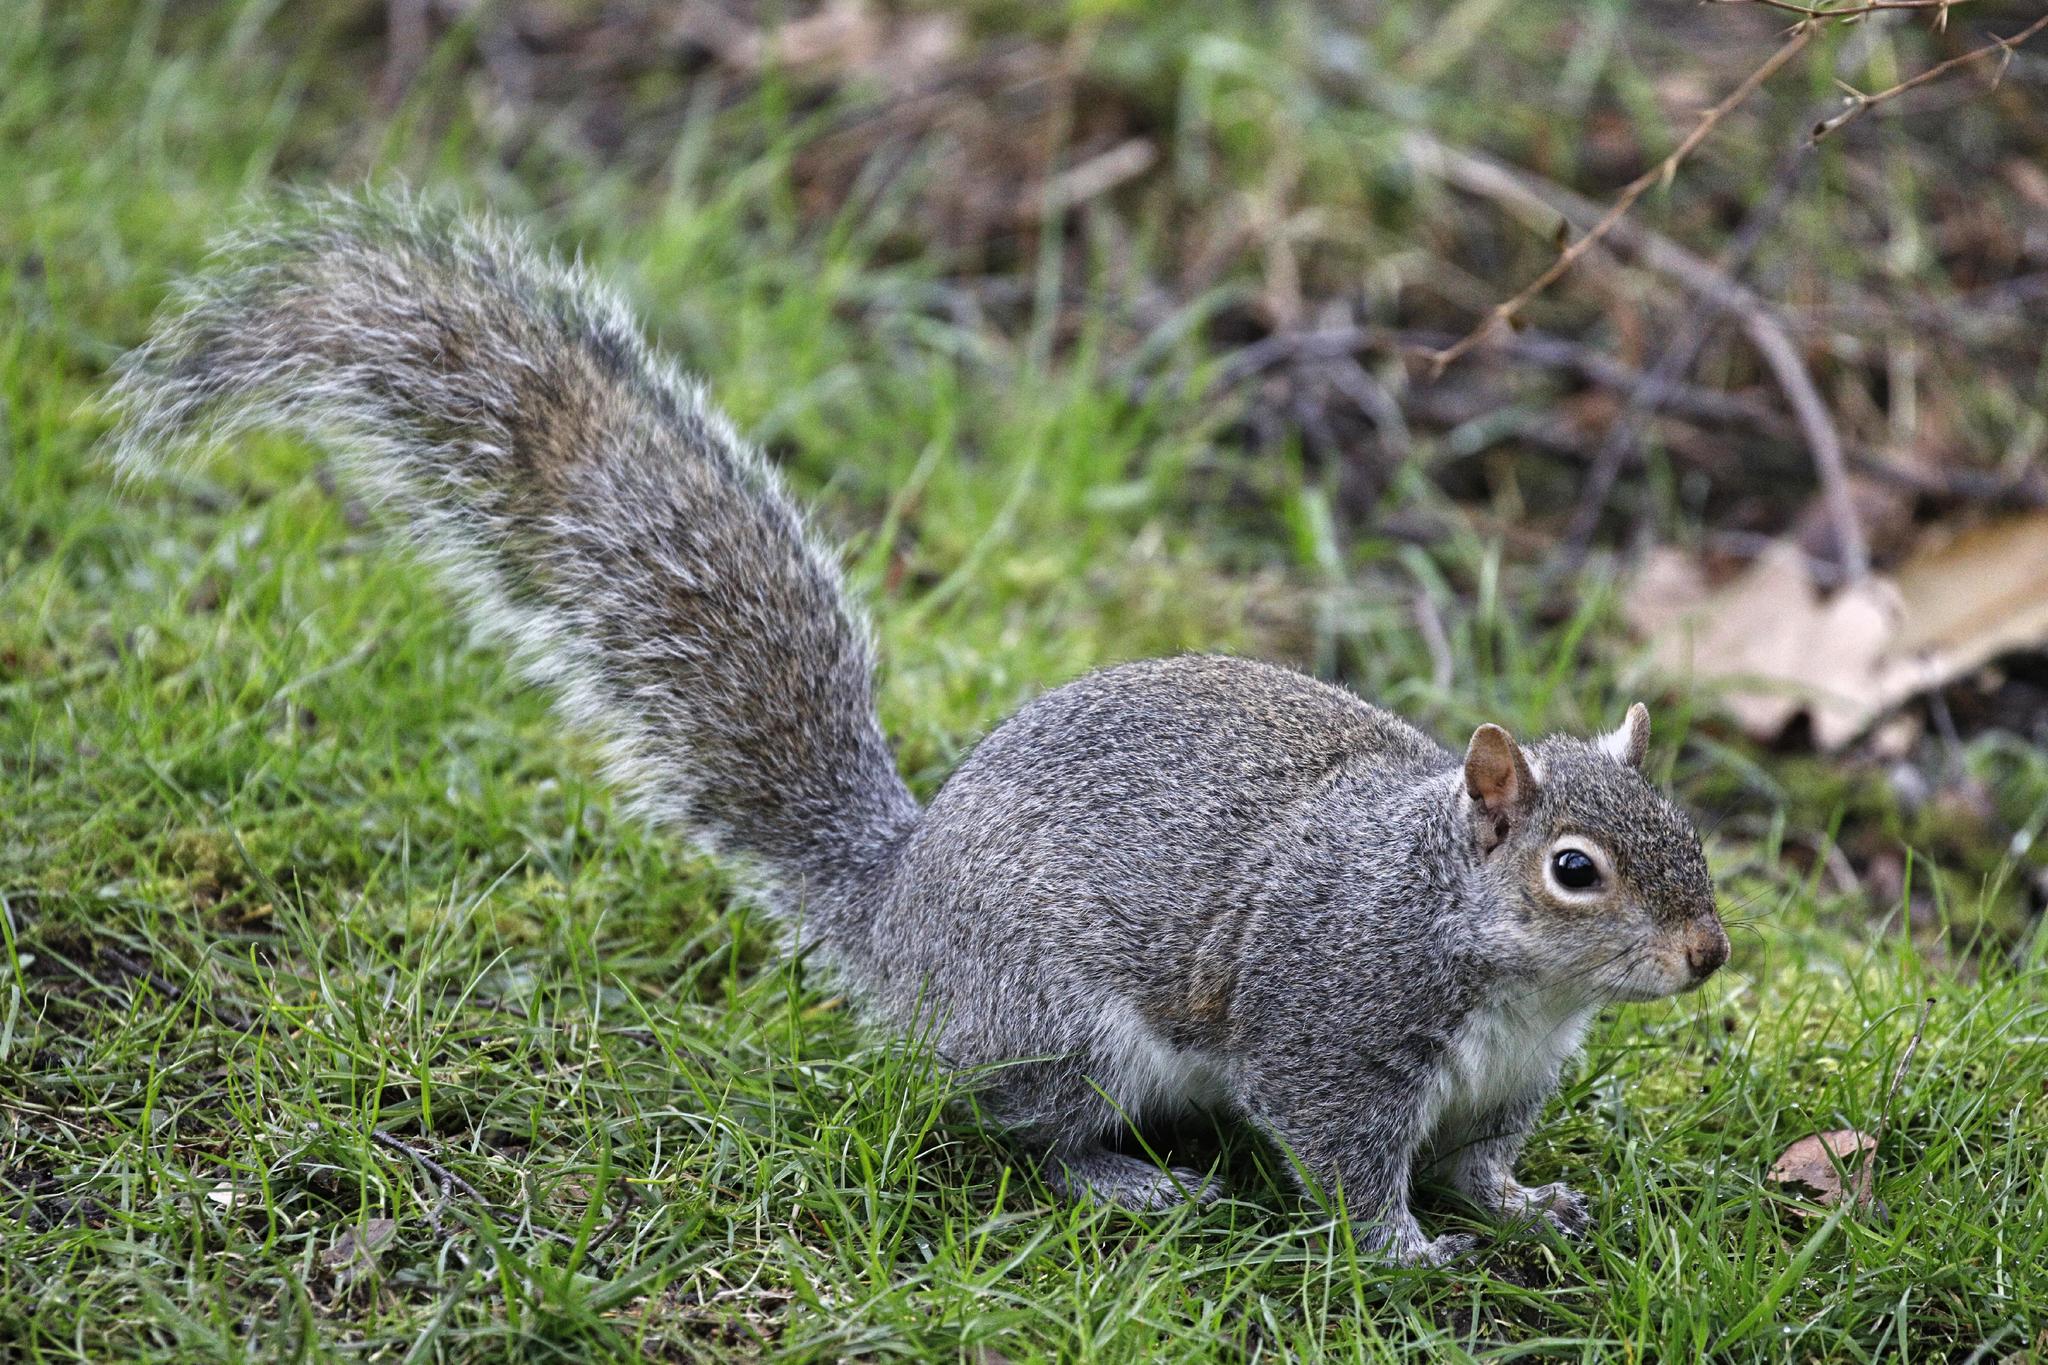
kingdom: Animalia
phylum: Chordata
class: Mammalia
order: Rodentia
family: Sciuridae
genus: Sciurus
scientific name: Sciurus carolinensis
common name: Eastern gray squirrel
